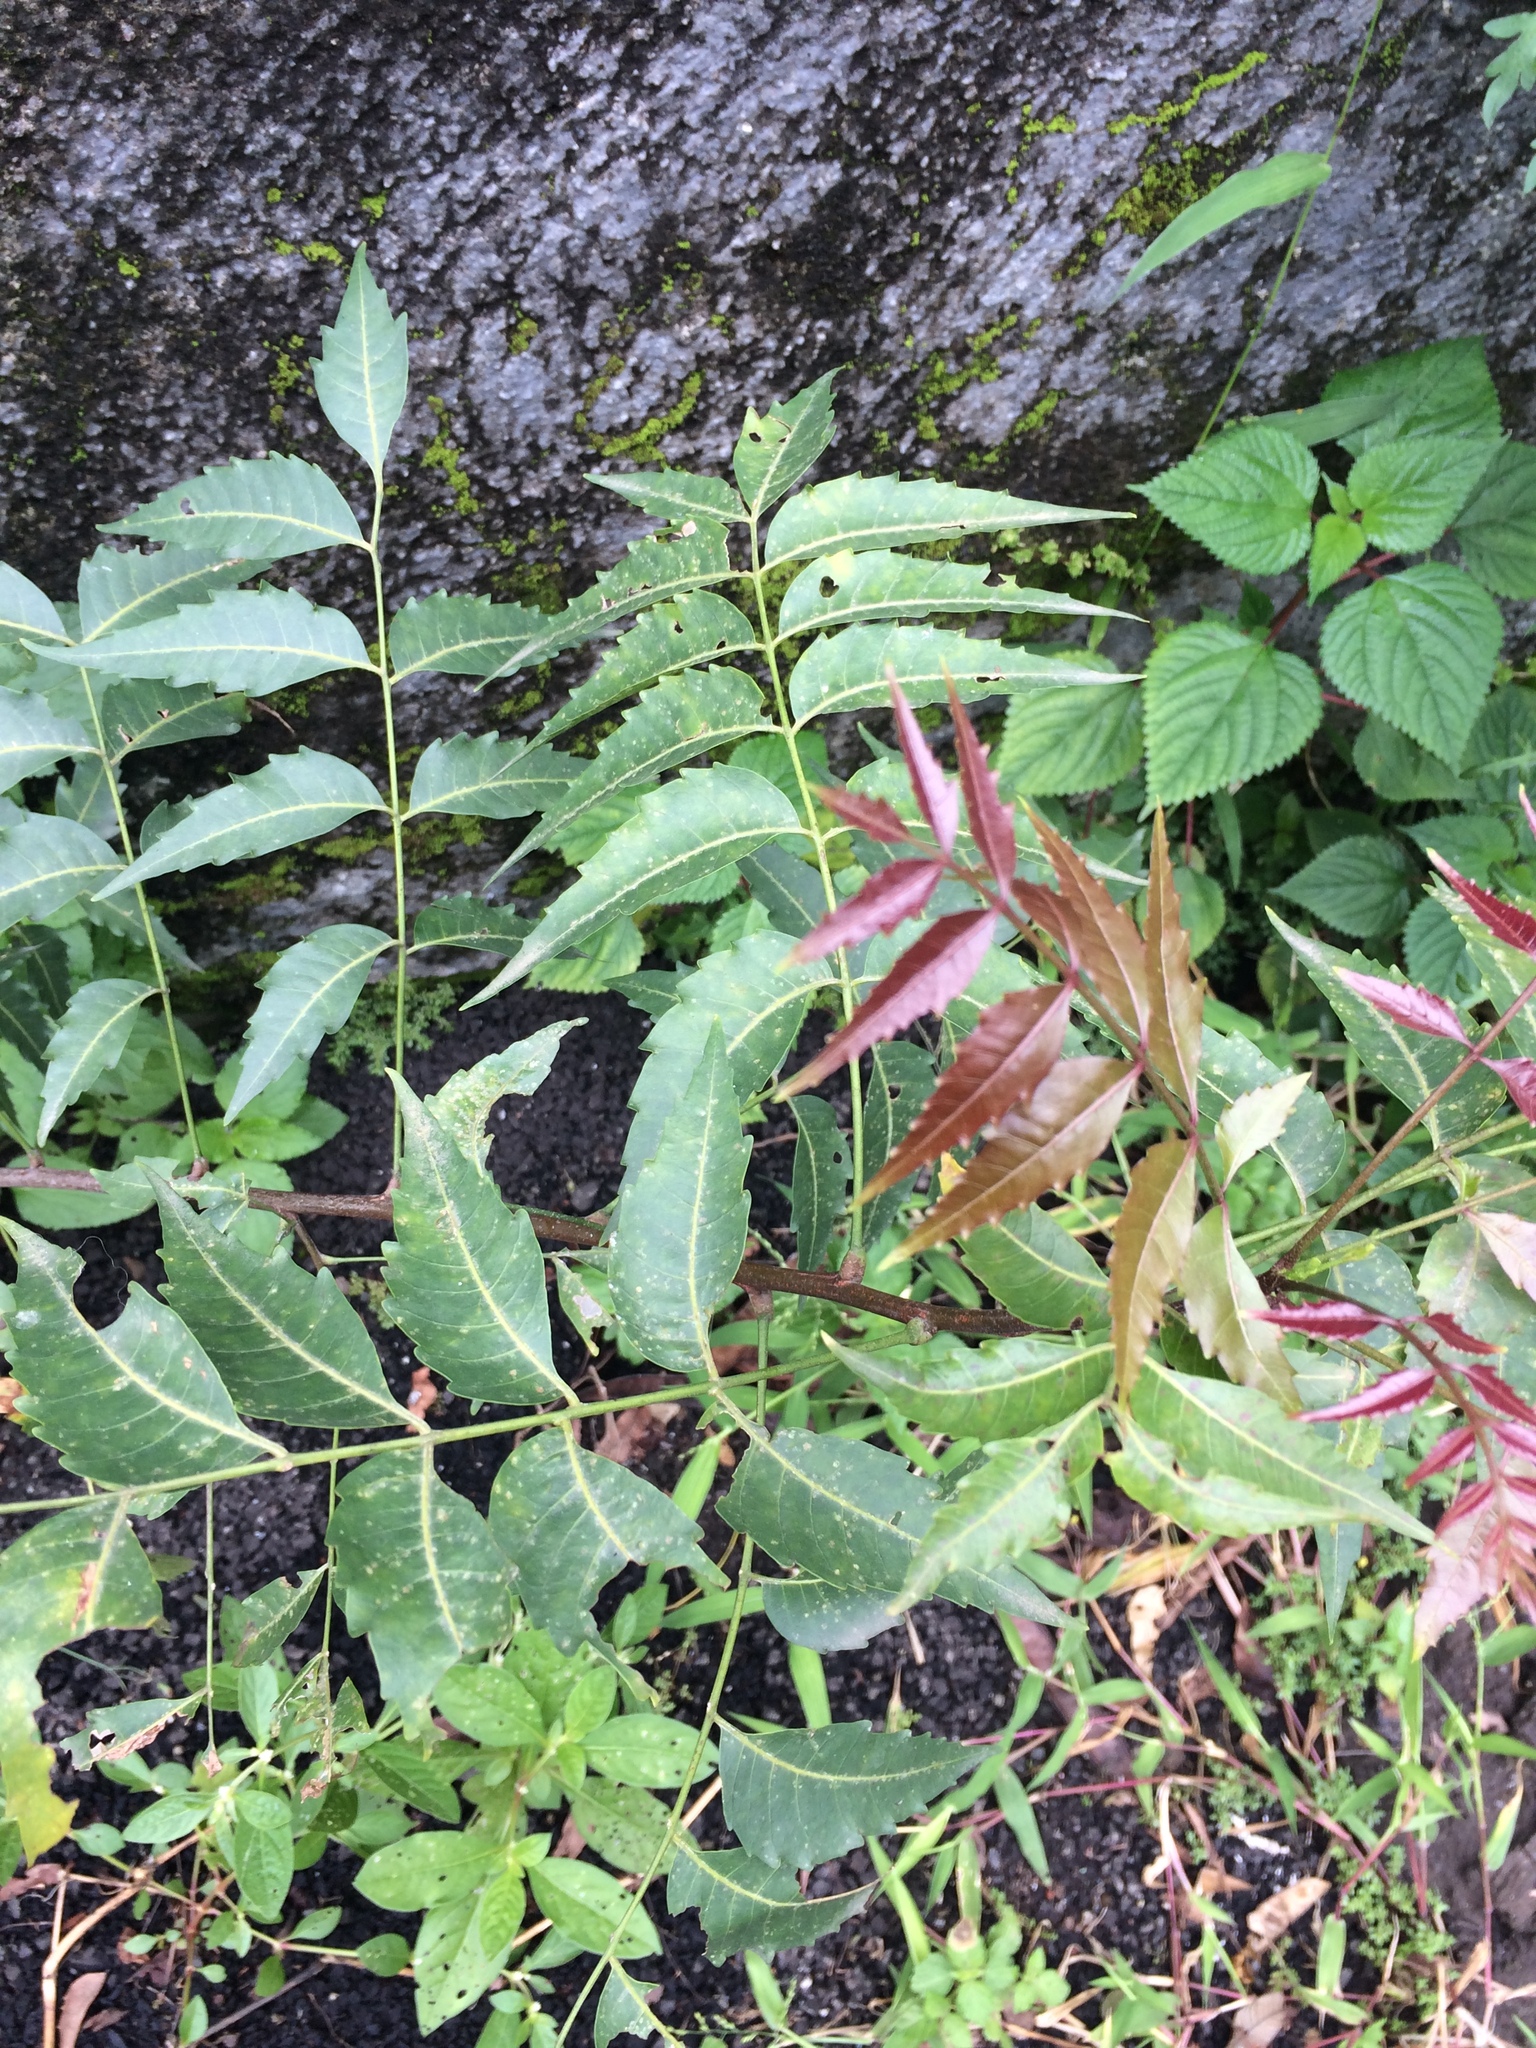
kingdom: Plantae
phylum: Tracheophyta
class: Magnoliopsida
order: Sapindales
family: Meliaceae
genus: Azadirachta
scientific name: Azadirachta indica
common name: Neem
